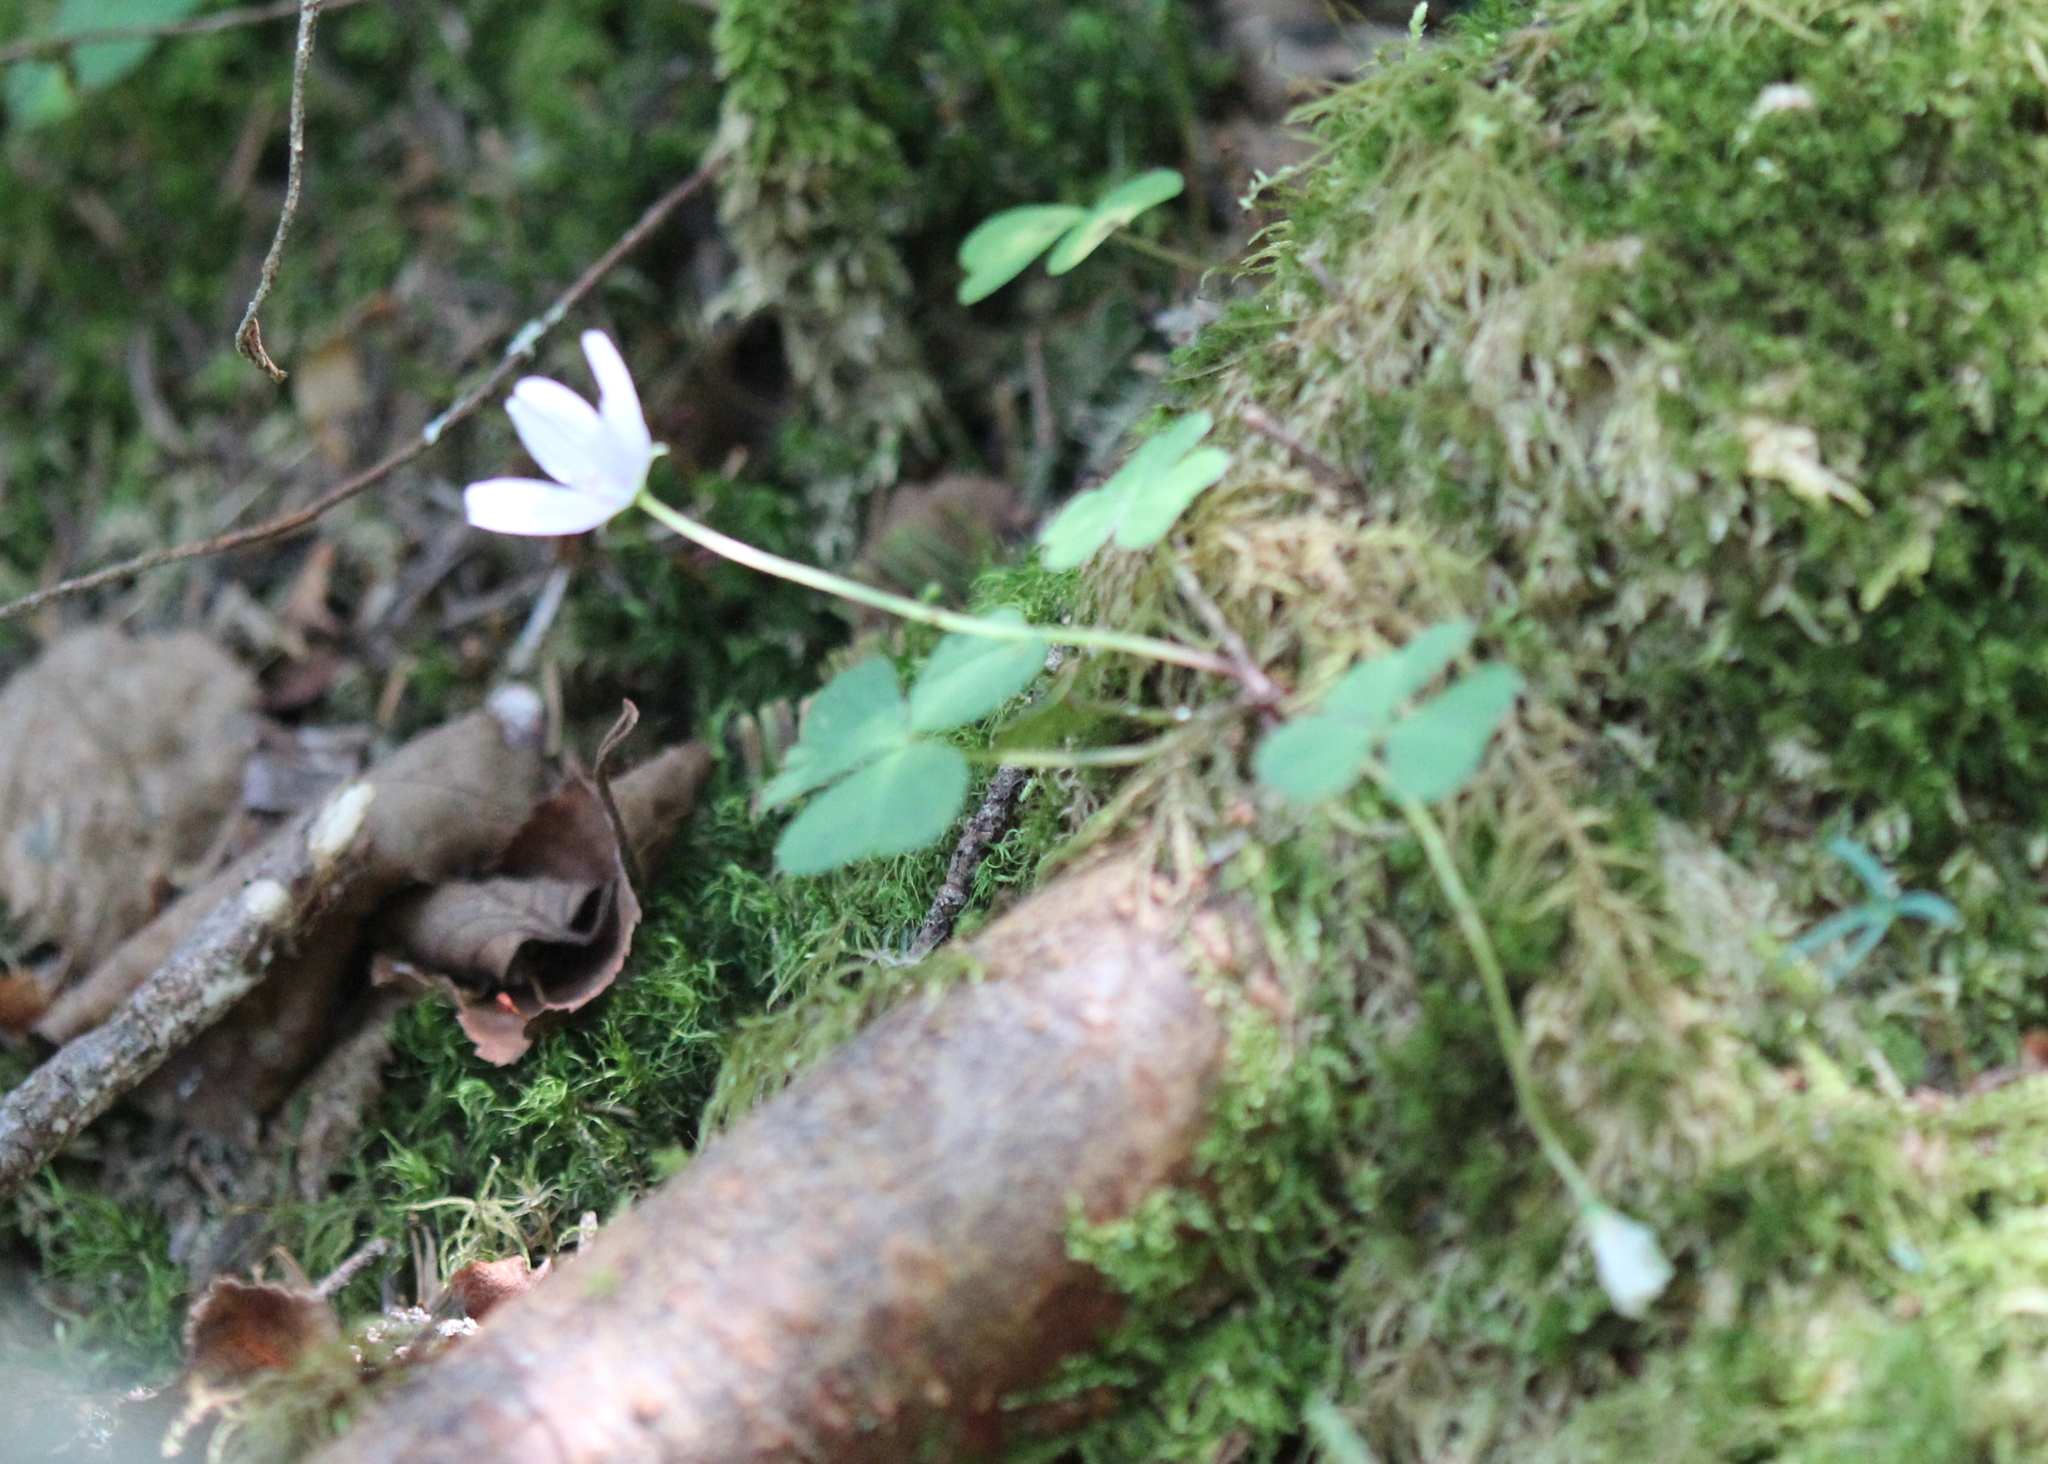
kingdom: Plantae
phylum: Tracheophyta
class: Magnoliopsida
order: Oxalidales
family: Oxalidaceae
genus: Oxalis
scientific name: Oxalis montana
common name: American wood-sorrel
